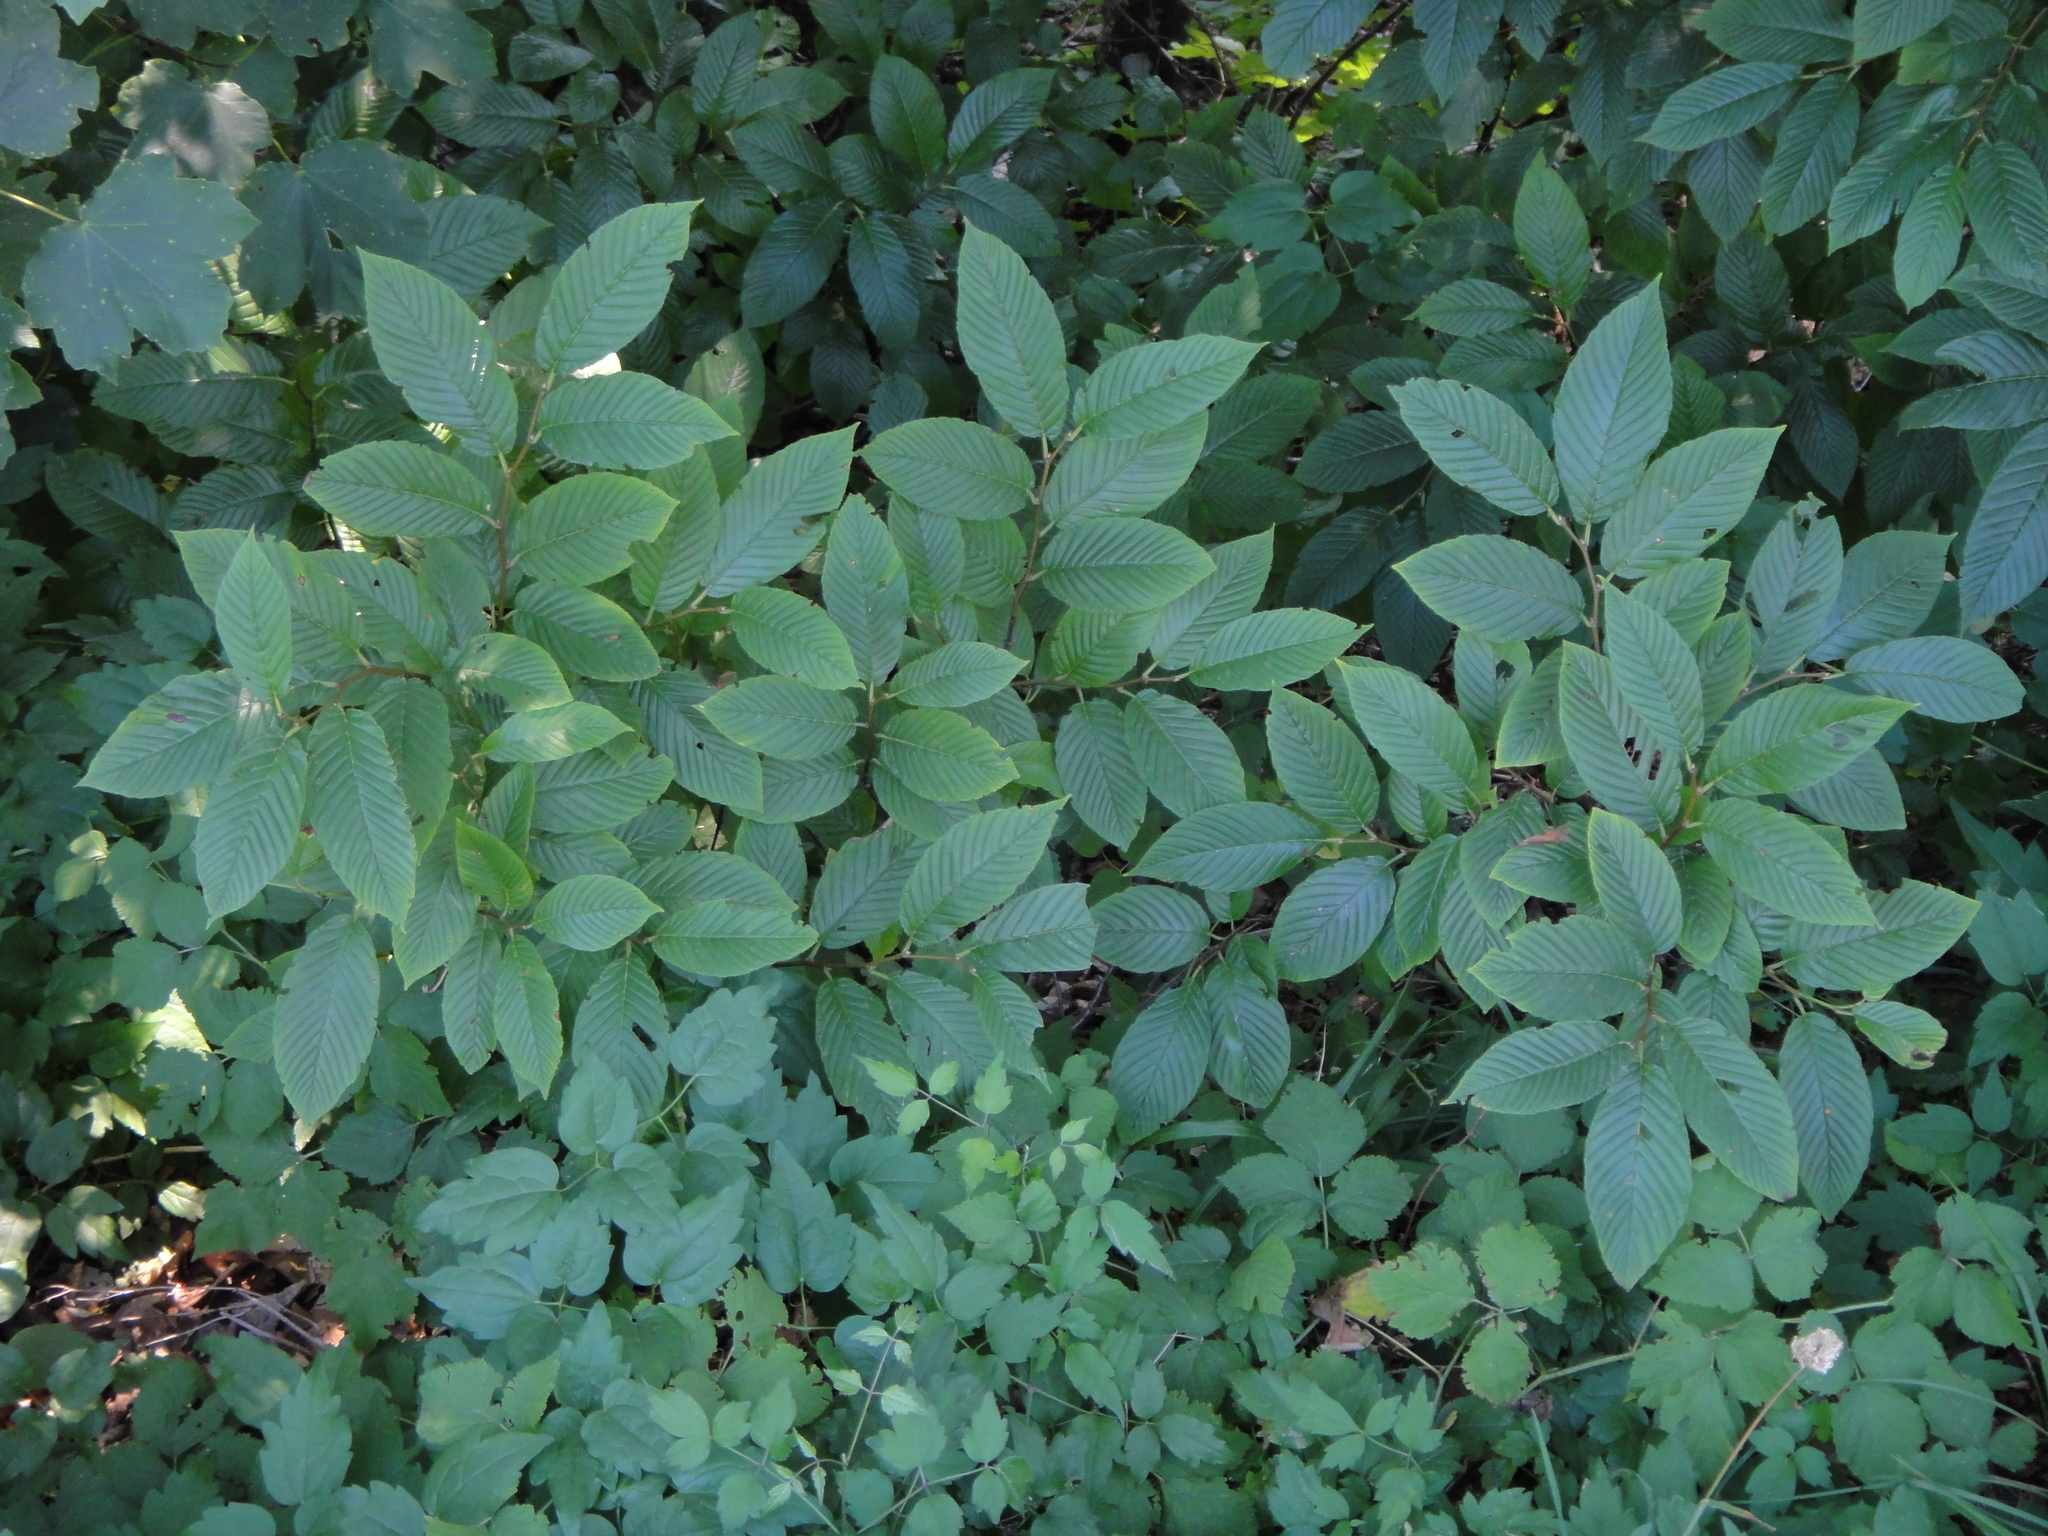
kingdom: Plantae
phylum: Tracheophyta
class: Magnoliopsida
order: Rosales
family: Rhamnaceae
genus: Atadinus
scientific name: Atadinus fallax
